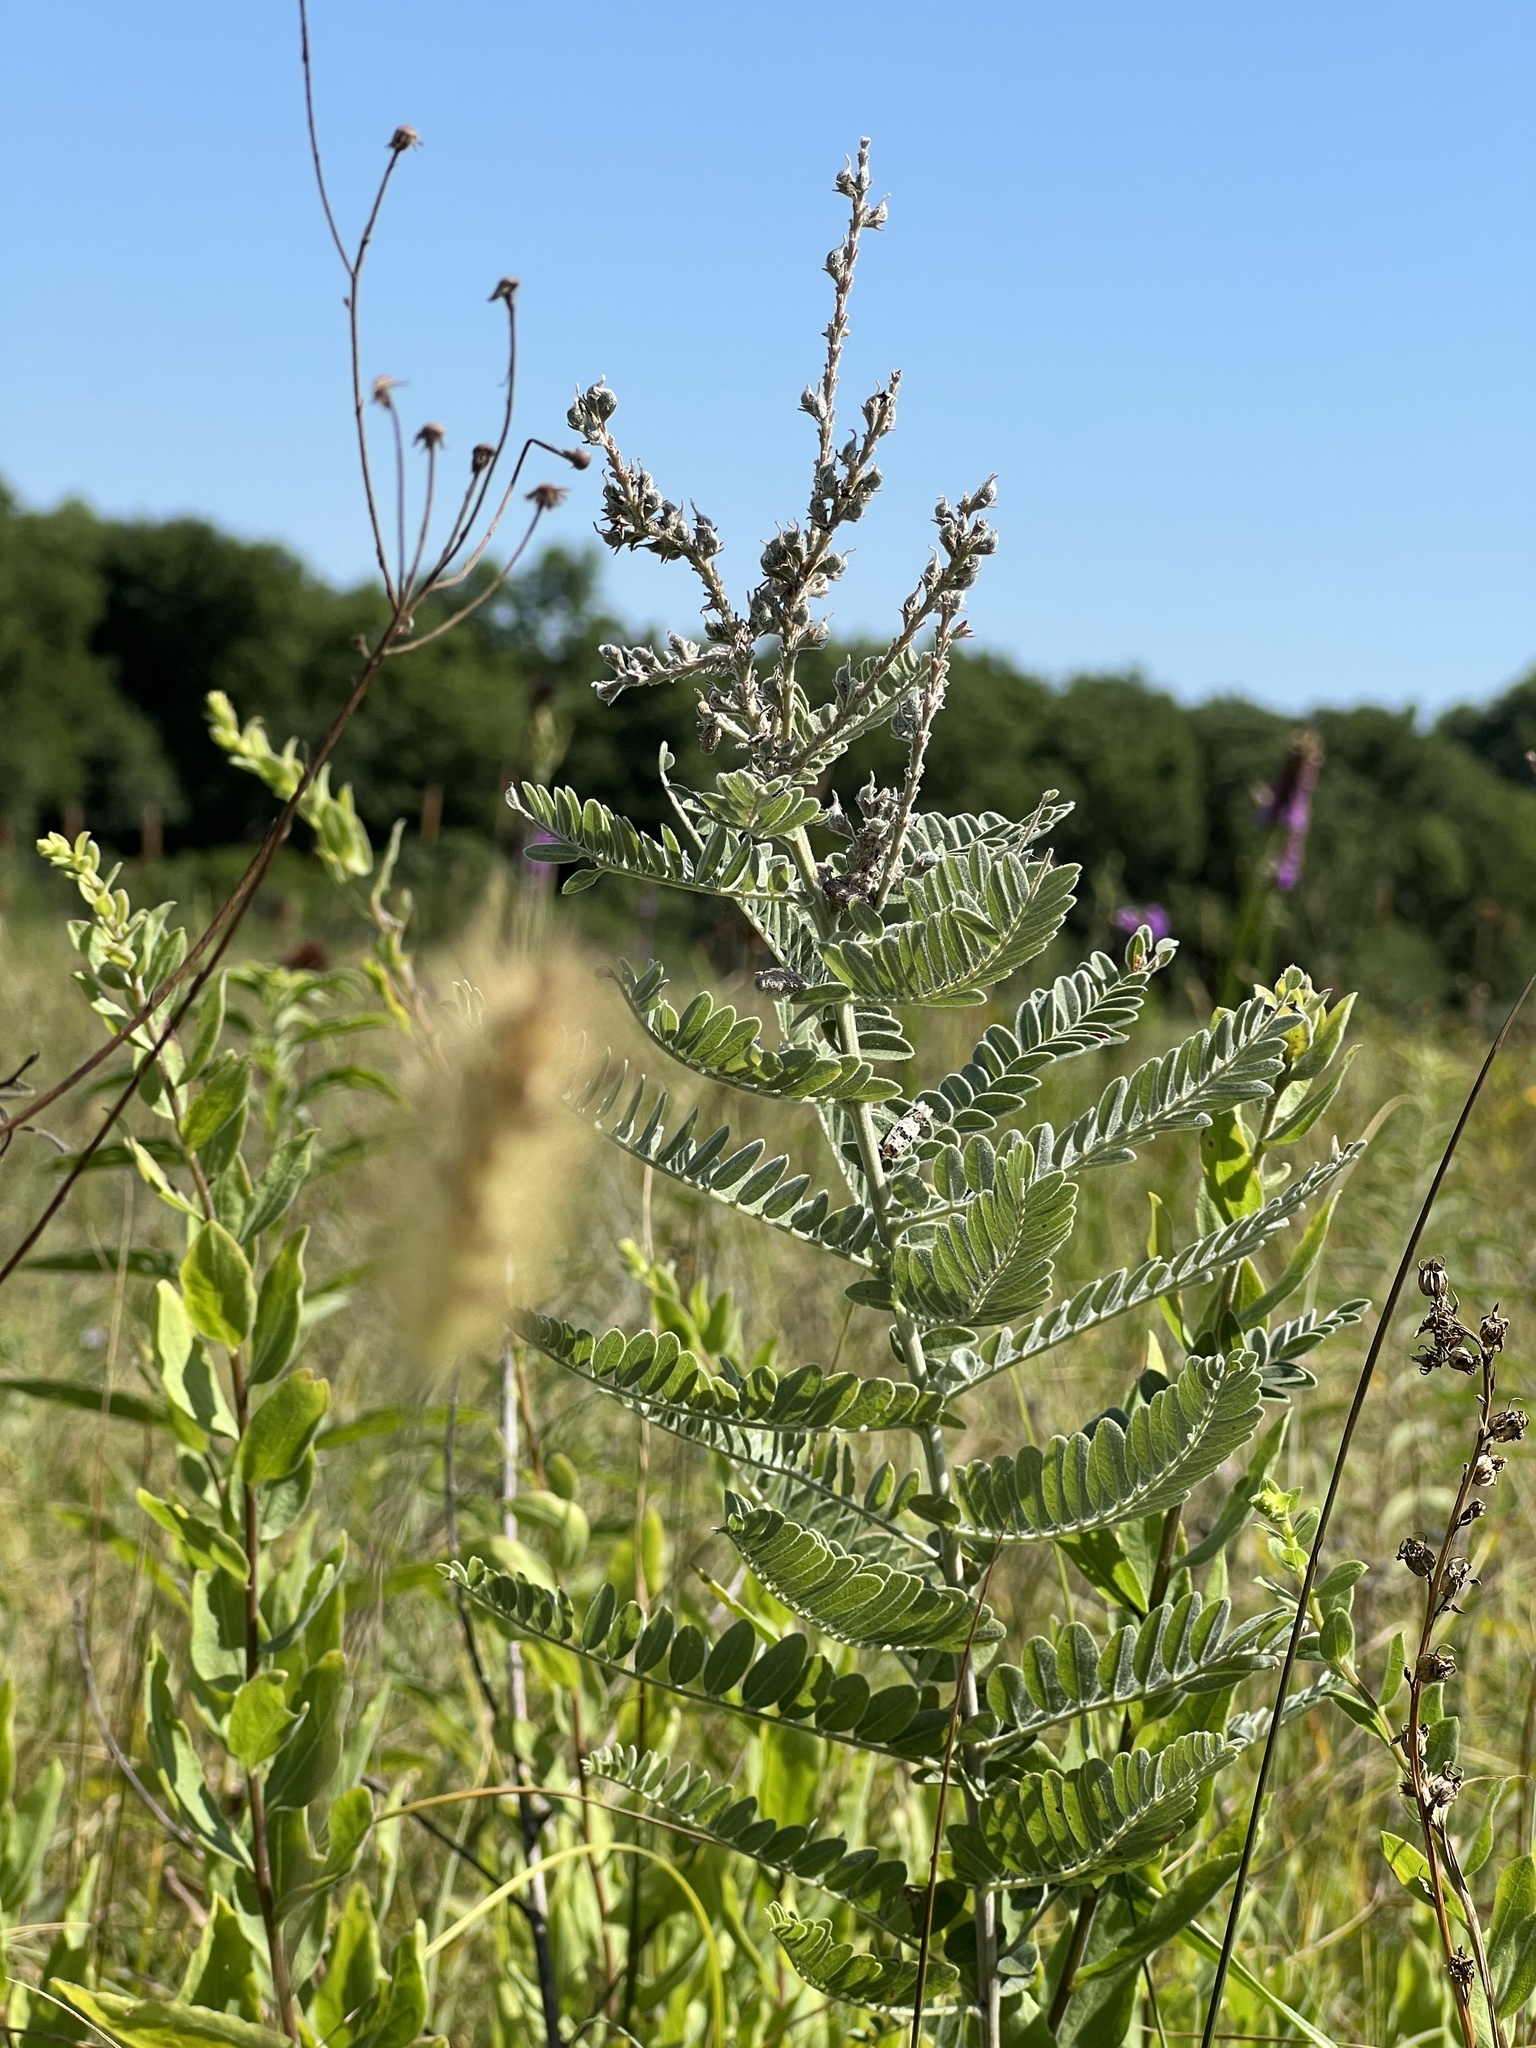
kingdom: Plantae
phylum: Tracheophyta
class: Magnoliopsida
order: Fabales
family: Fabaceae
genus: Amorpha
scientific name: Amorpha canescens
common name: Leadplant
